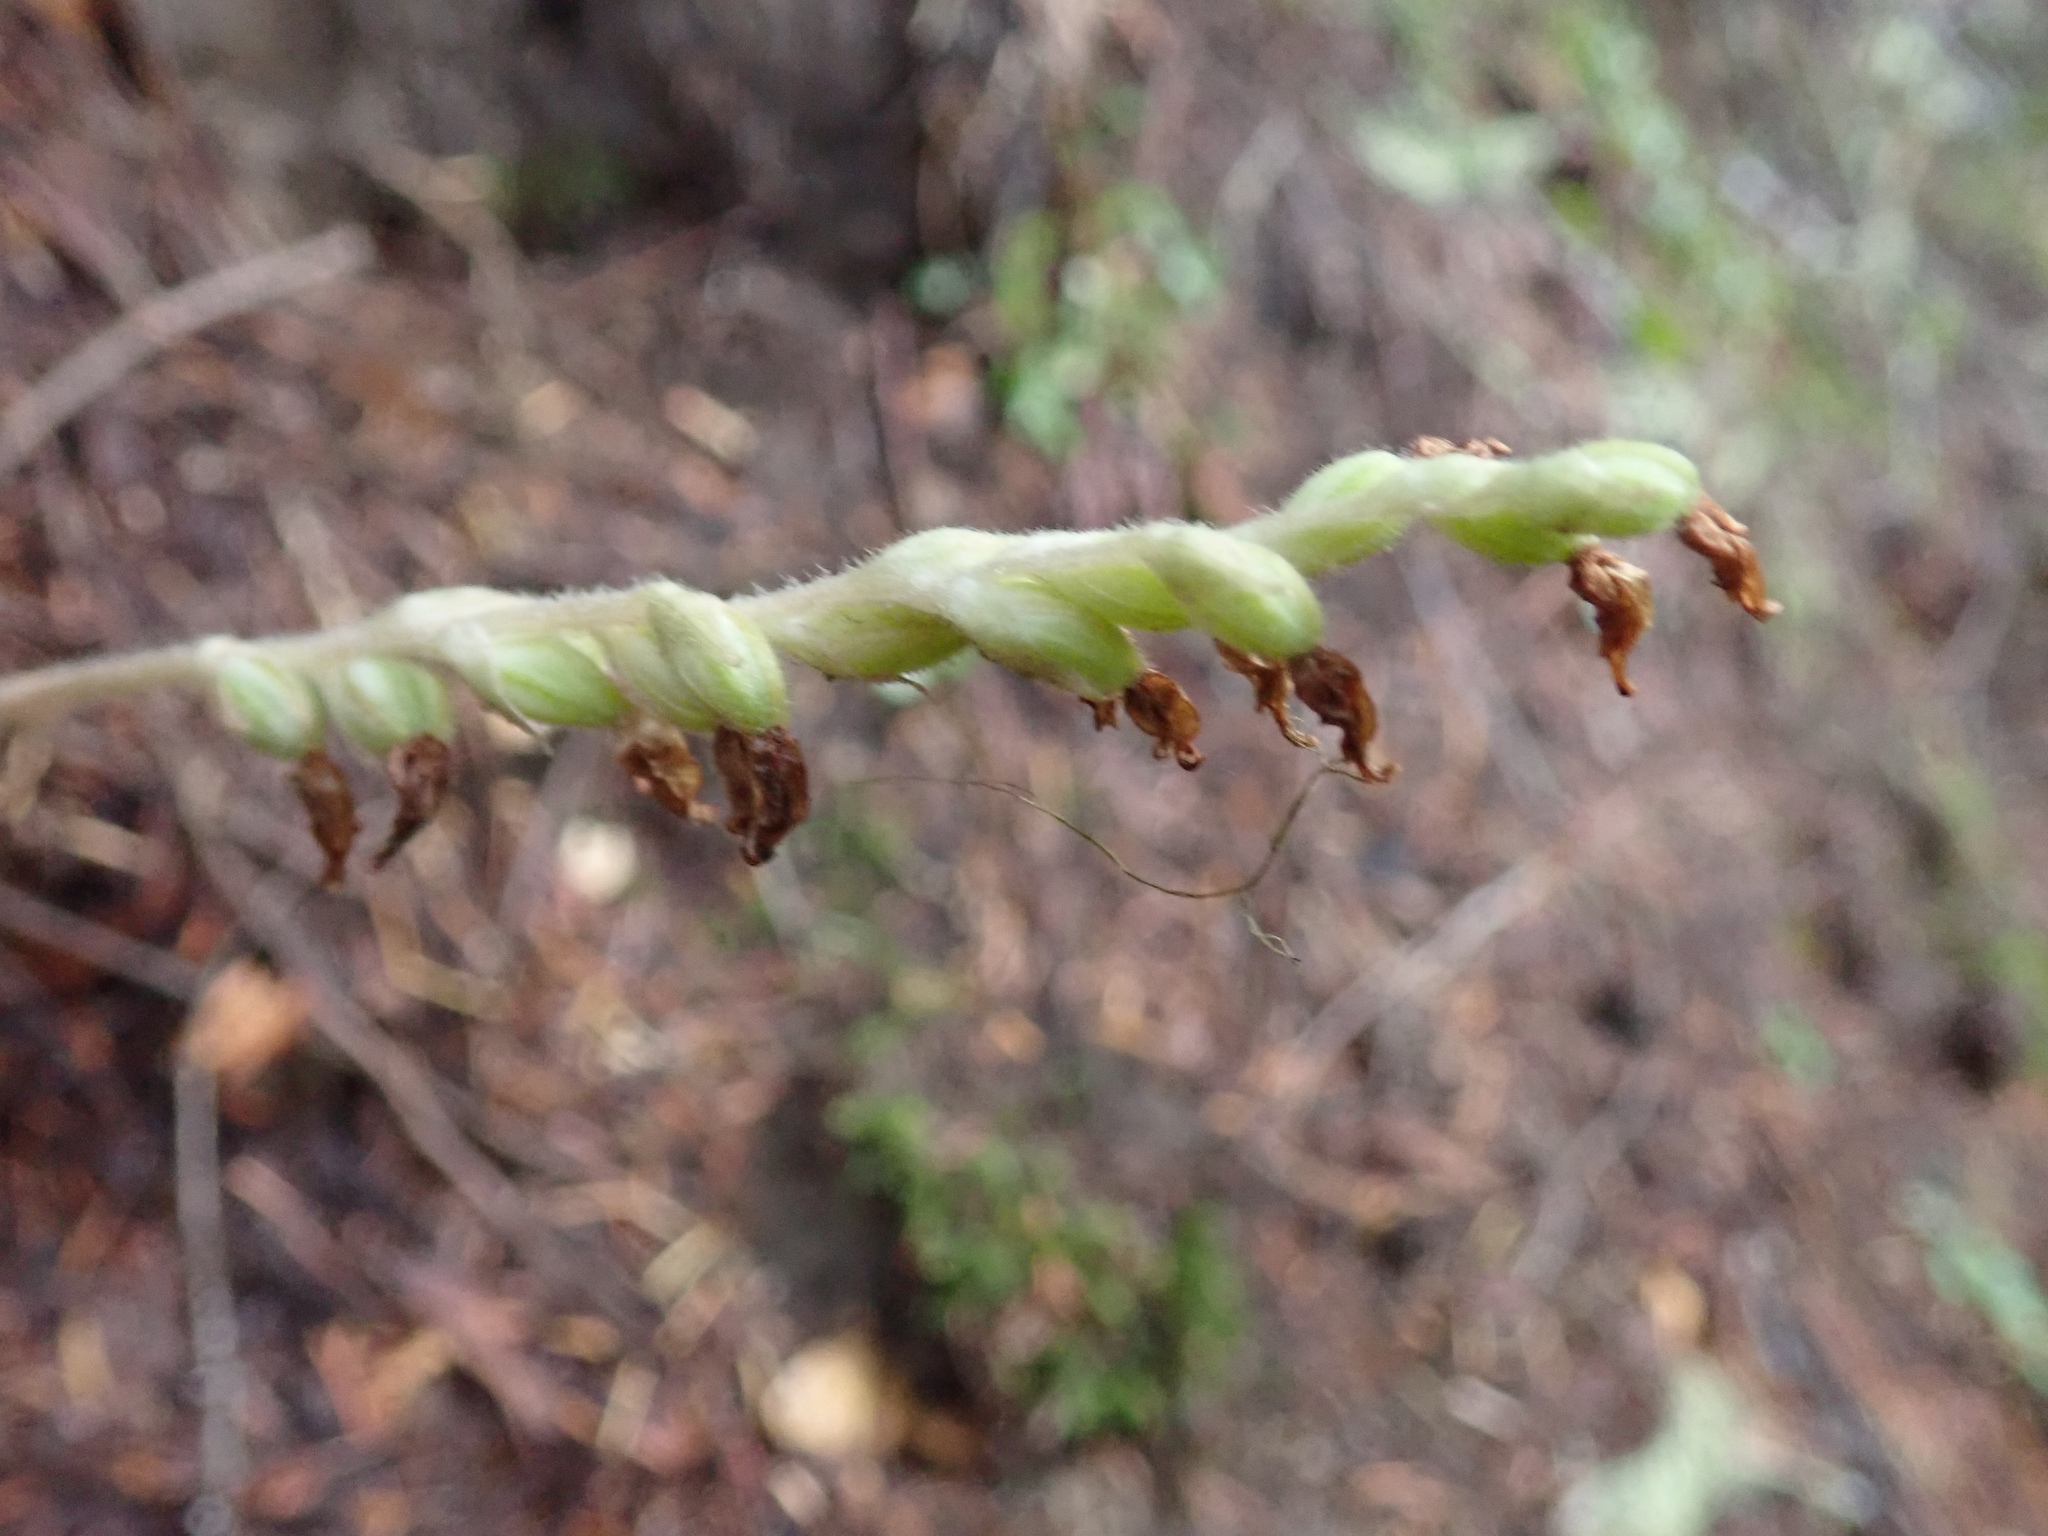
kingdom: Plantae
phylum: Tracheophyta
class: Liliopsida
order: Asparagales
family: Orchidaceae
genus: Goodyera
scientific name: Goodyera oblongifolia
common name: Giant rattlesnake-plantain
